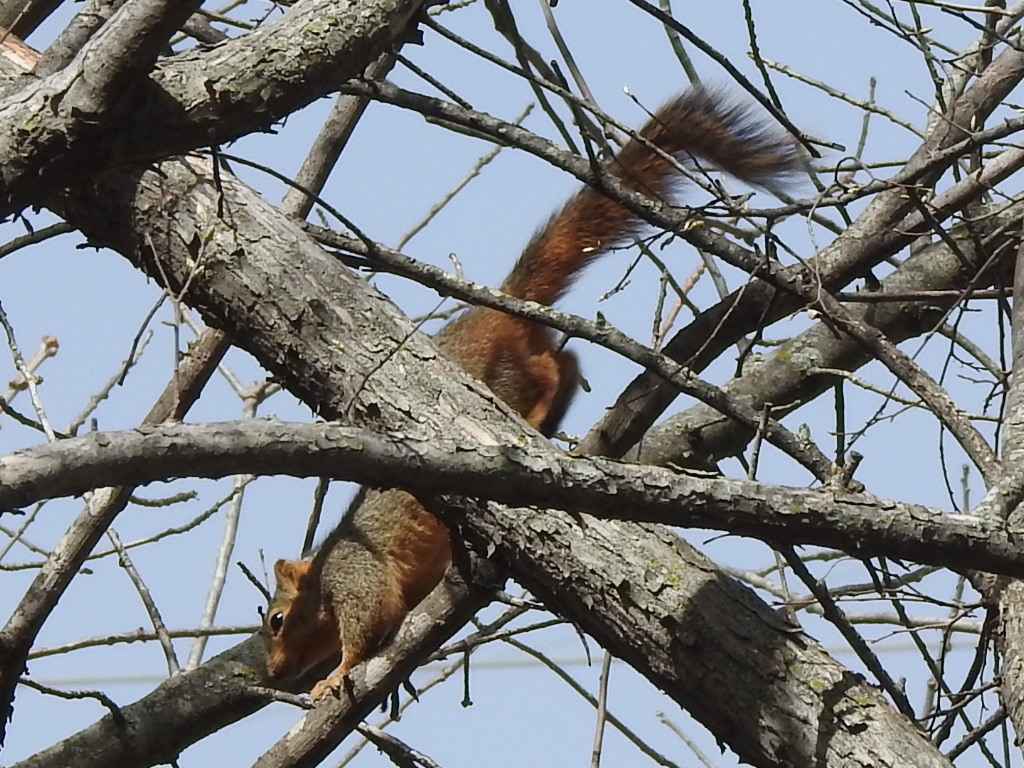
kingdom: Animalia
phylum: Chordata
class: Mammalia
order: Rodentia
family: Sciuridae
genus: Sciurus
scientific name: Sciurus niger
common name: Fox squirrel
